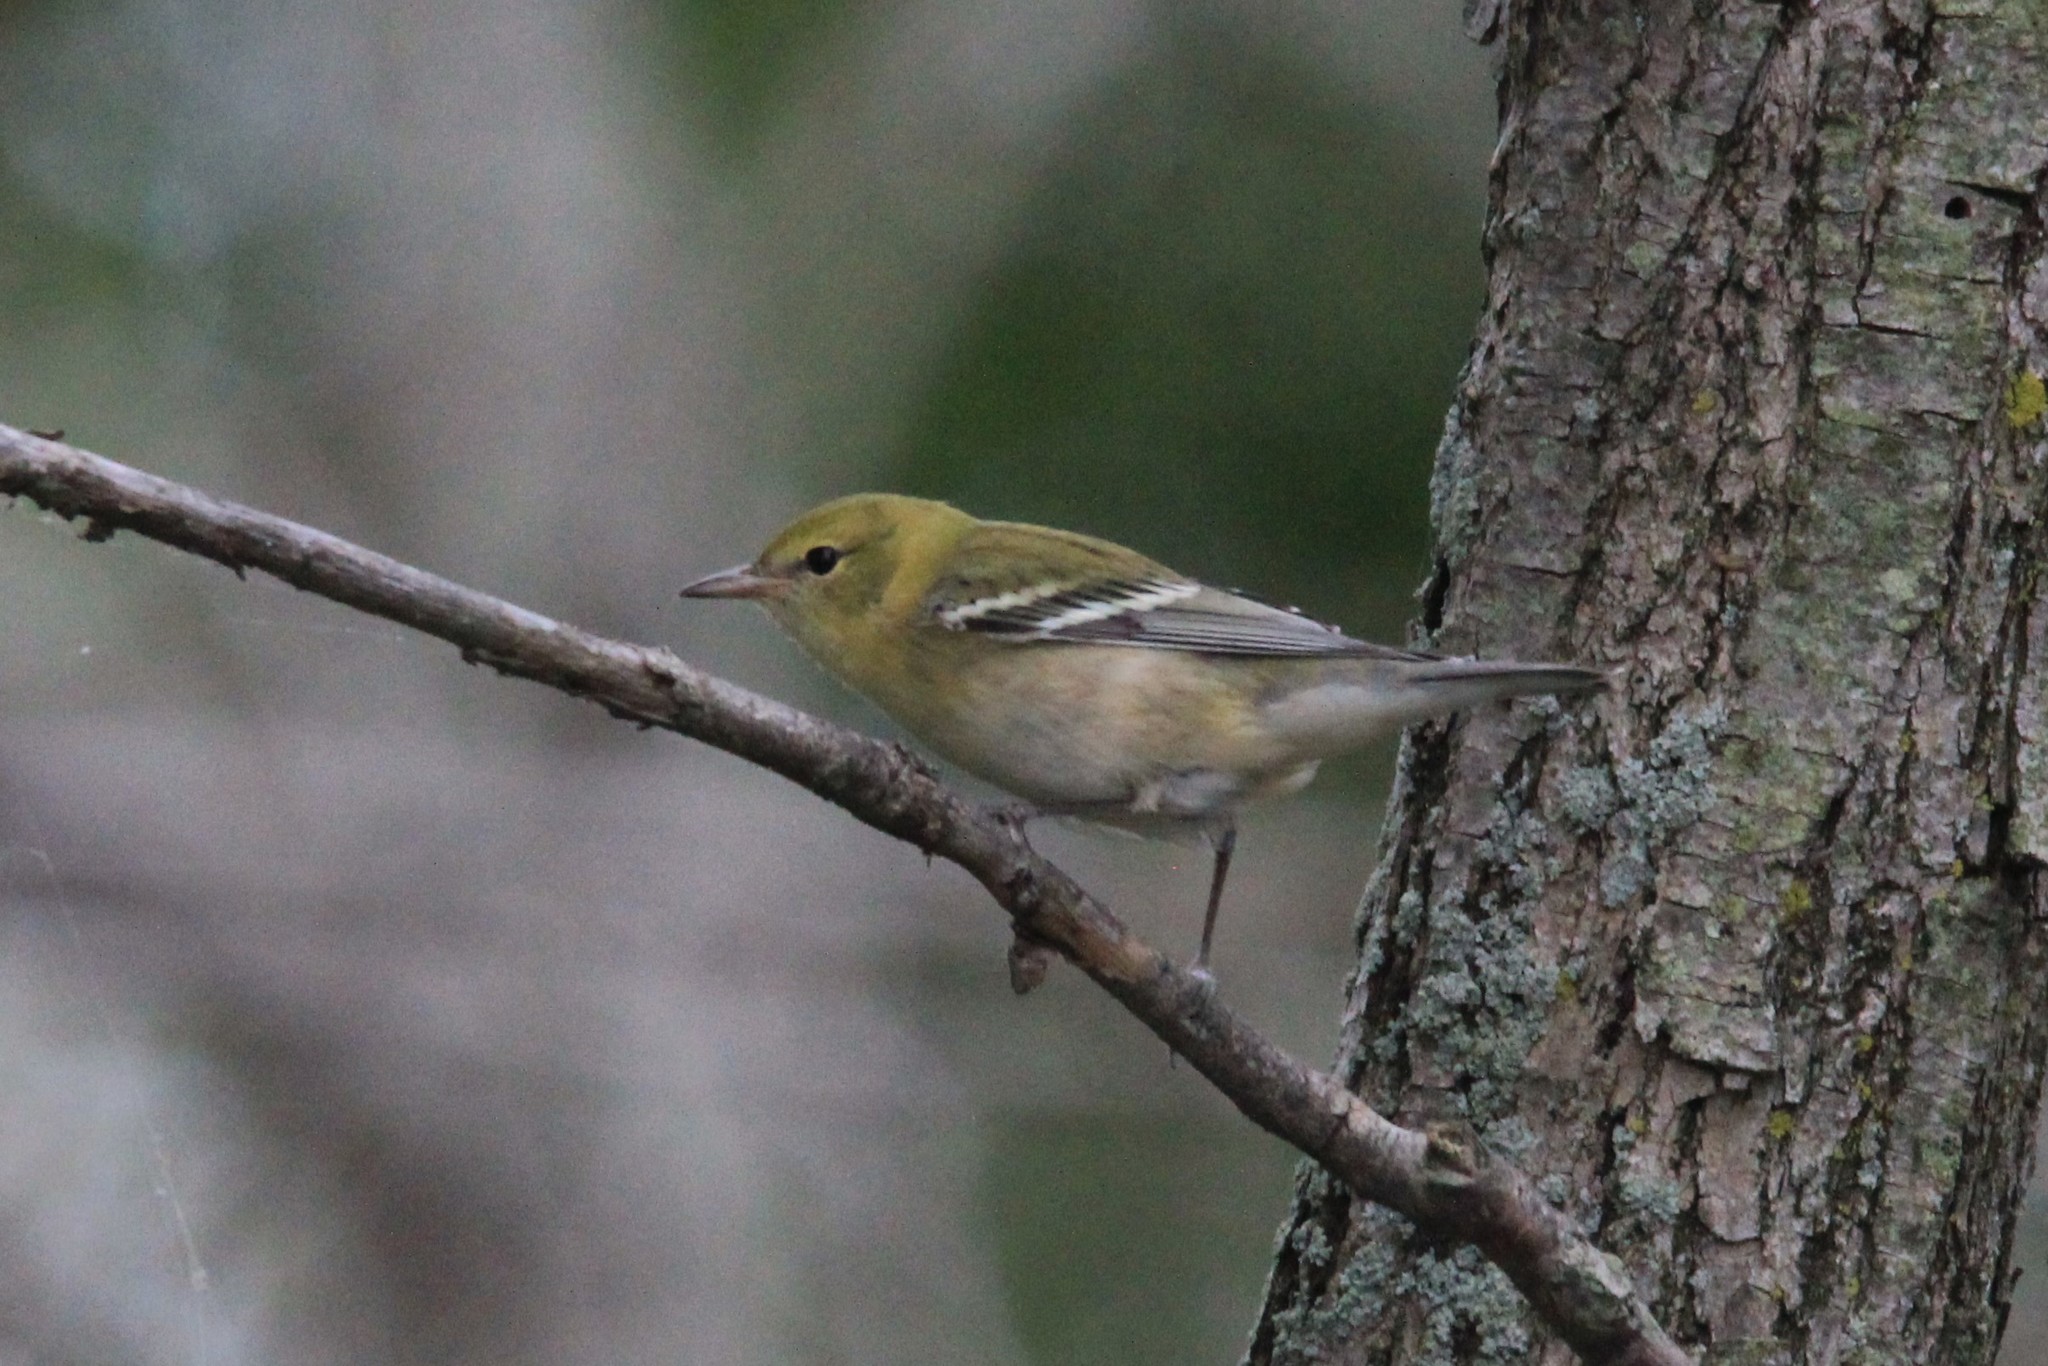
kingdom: Animalia
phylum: Chordata
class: Aves
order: Passeriformes
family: Parulidae
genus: Setophaga
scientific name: Setophaga castanea
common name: Bay-breasted warbler
